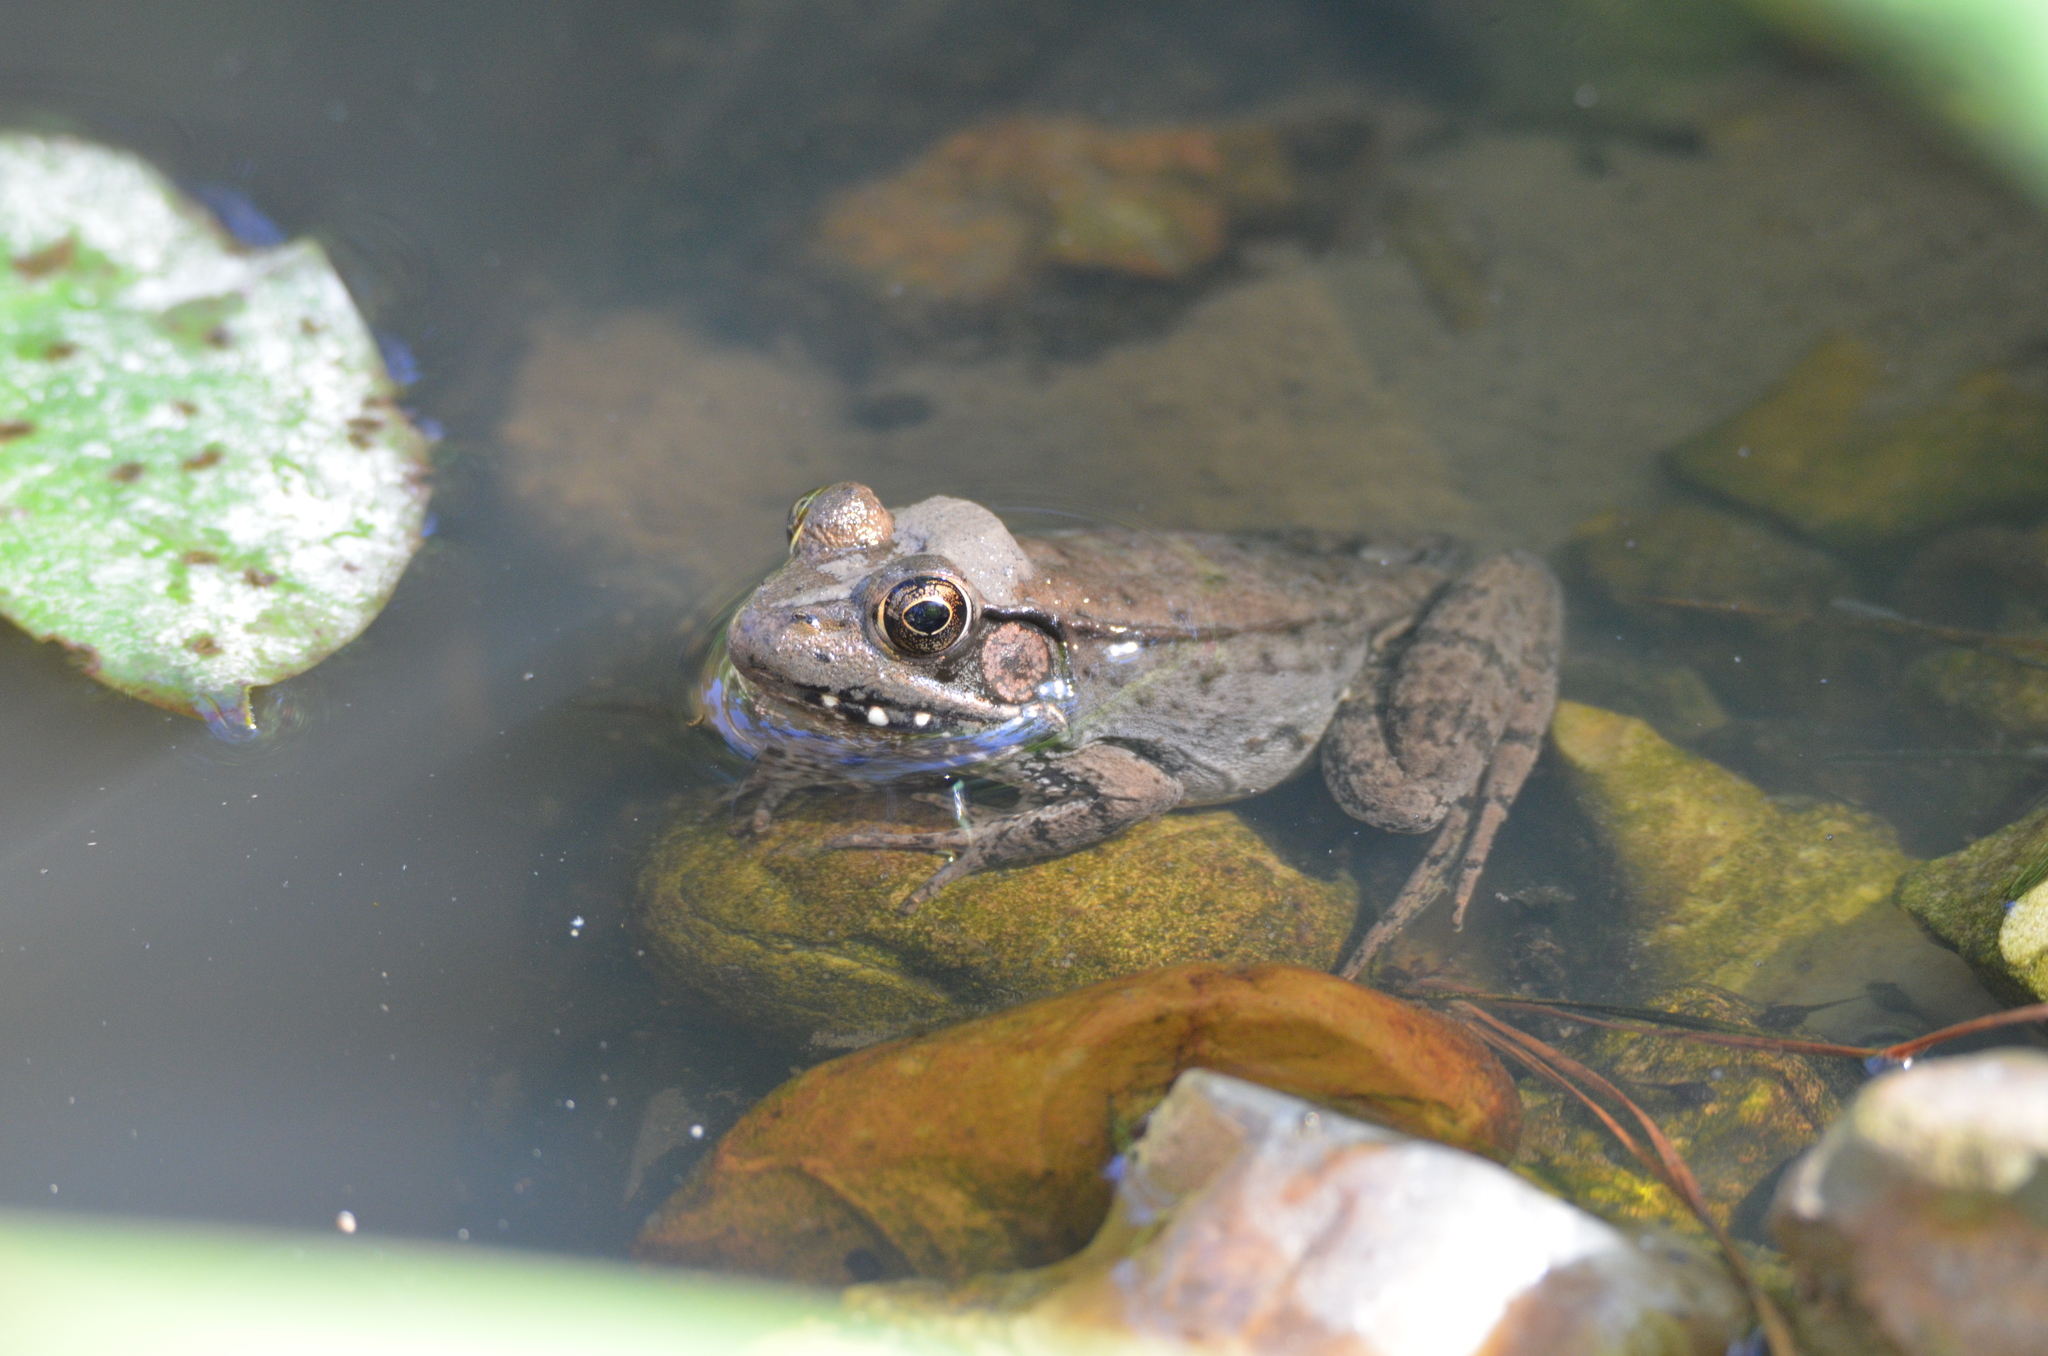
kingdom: Animalia
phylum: Chordata
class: Amphibia
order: Anura
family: Ranidae
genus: Lithobates
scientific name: Lithobates clamitans
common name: Green frog
